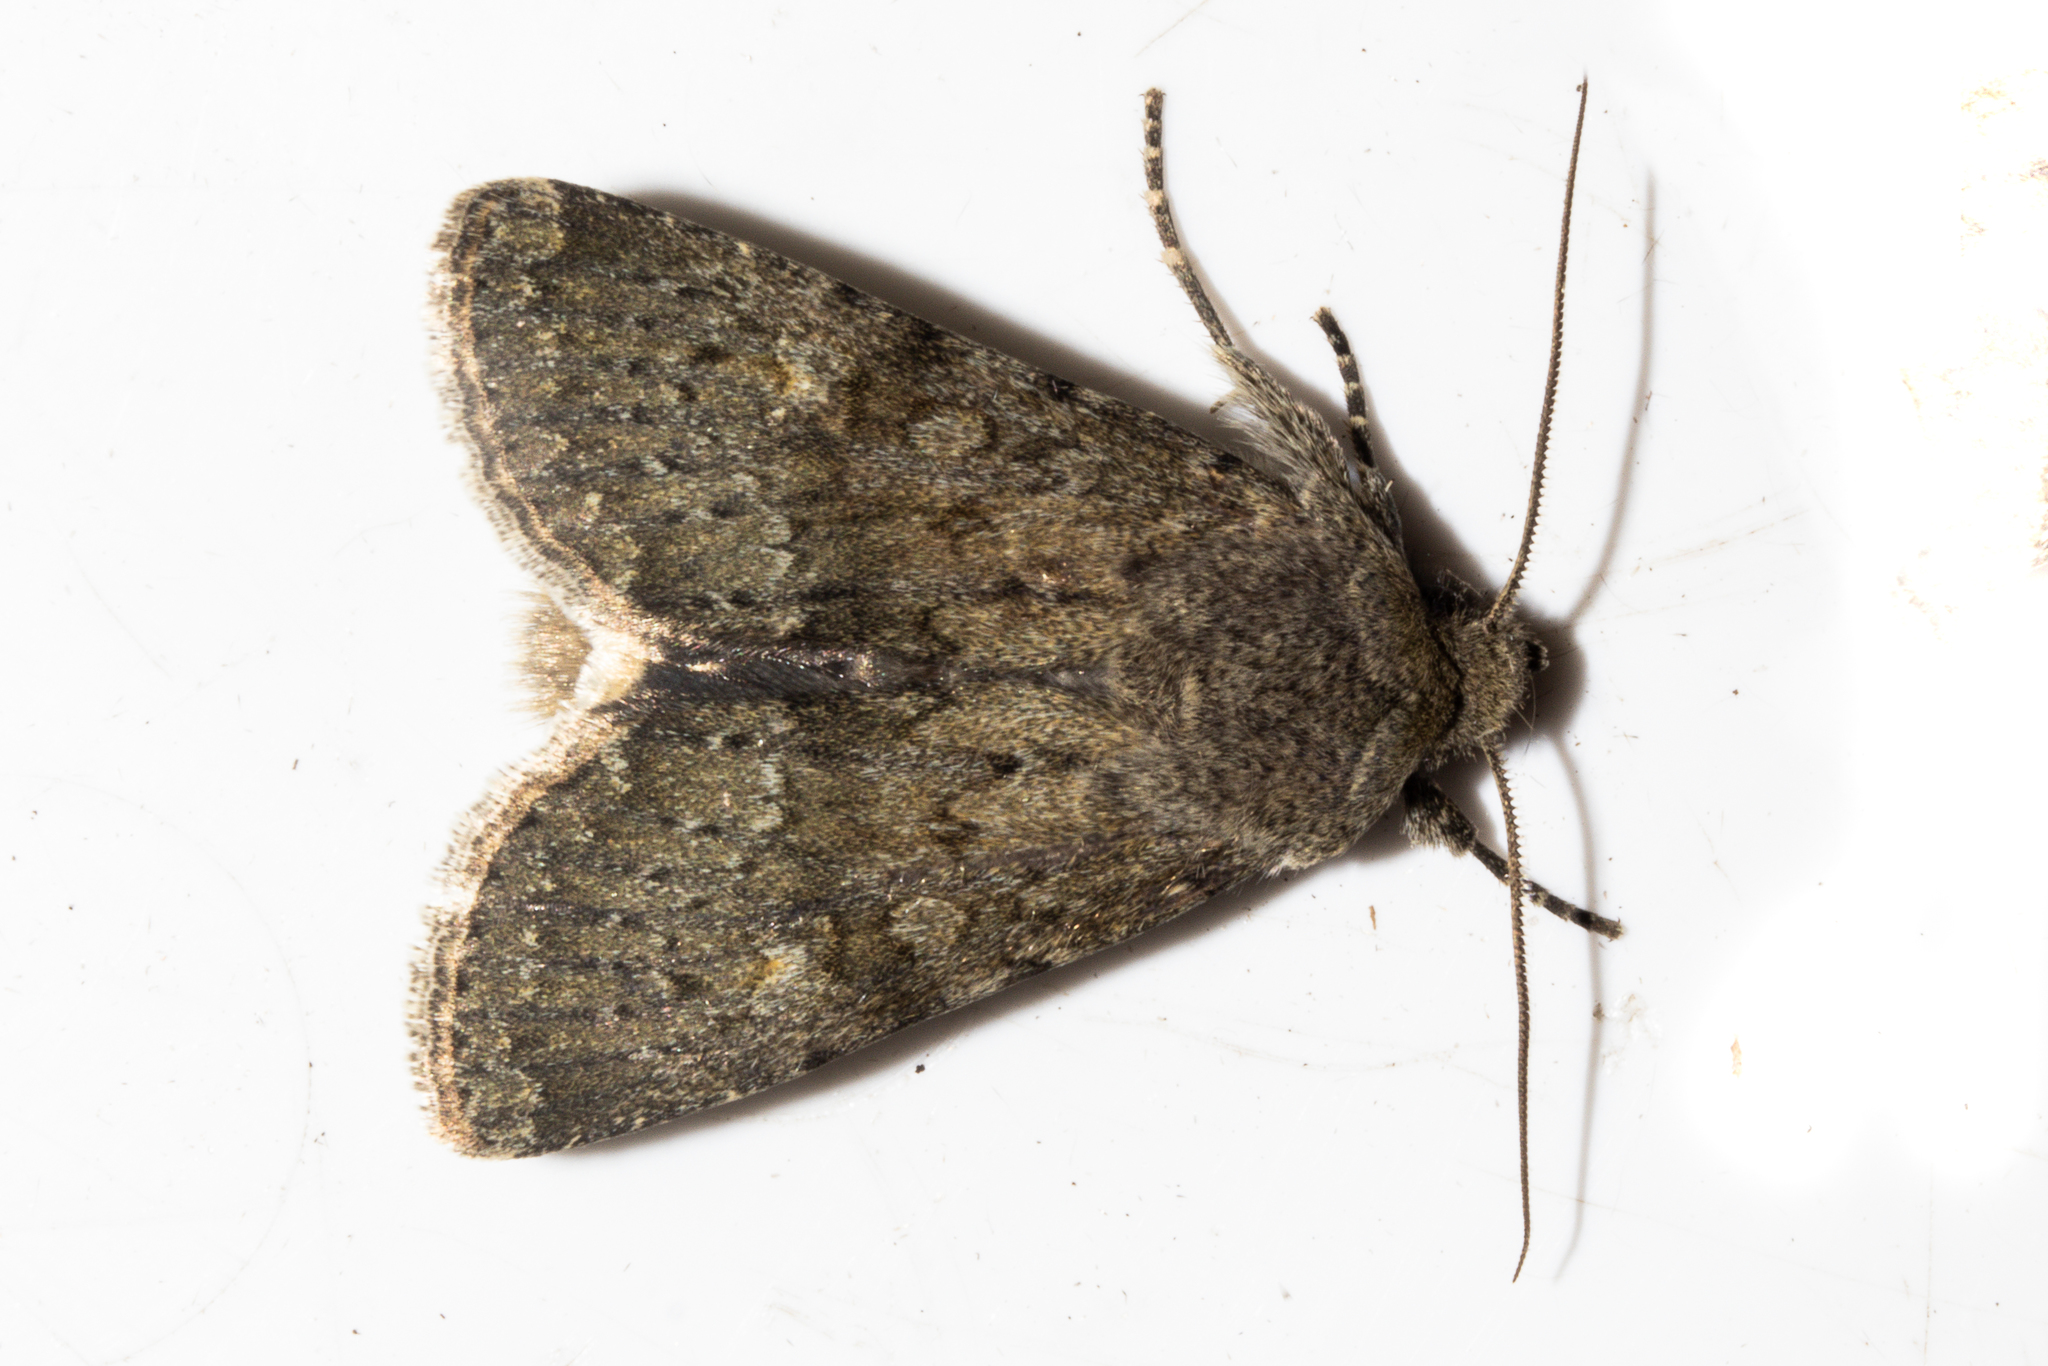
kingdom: Animalia
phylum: Arthropoda
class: Insecta
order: Lepidoptera
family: Noctuidae
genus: Ichneutica
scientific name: Ichneutica moderata
